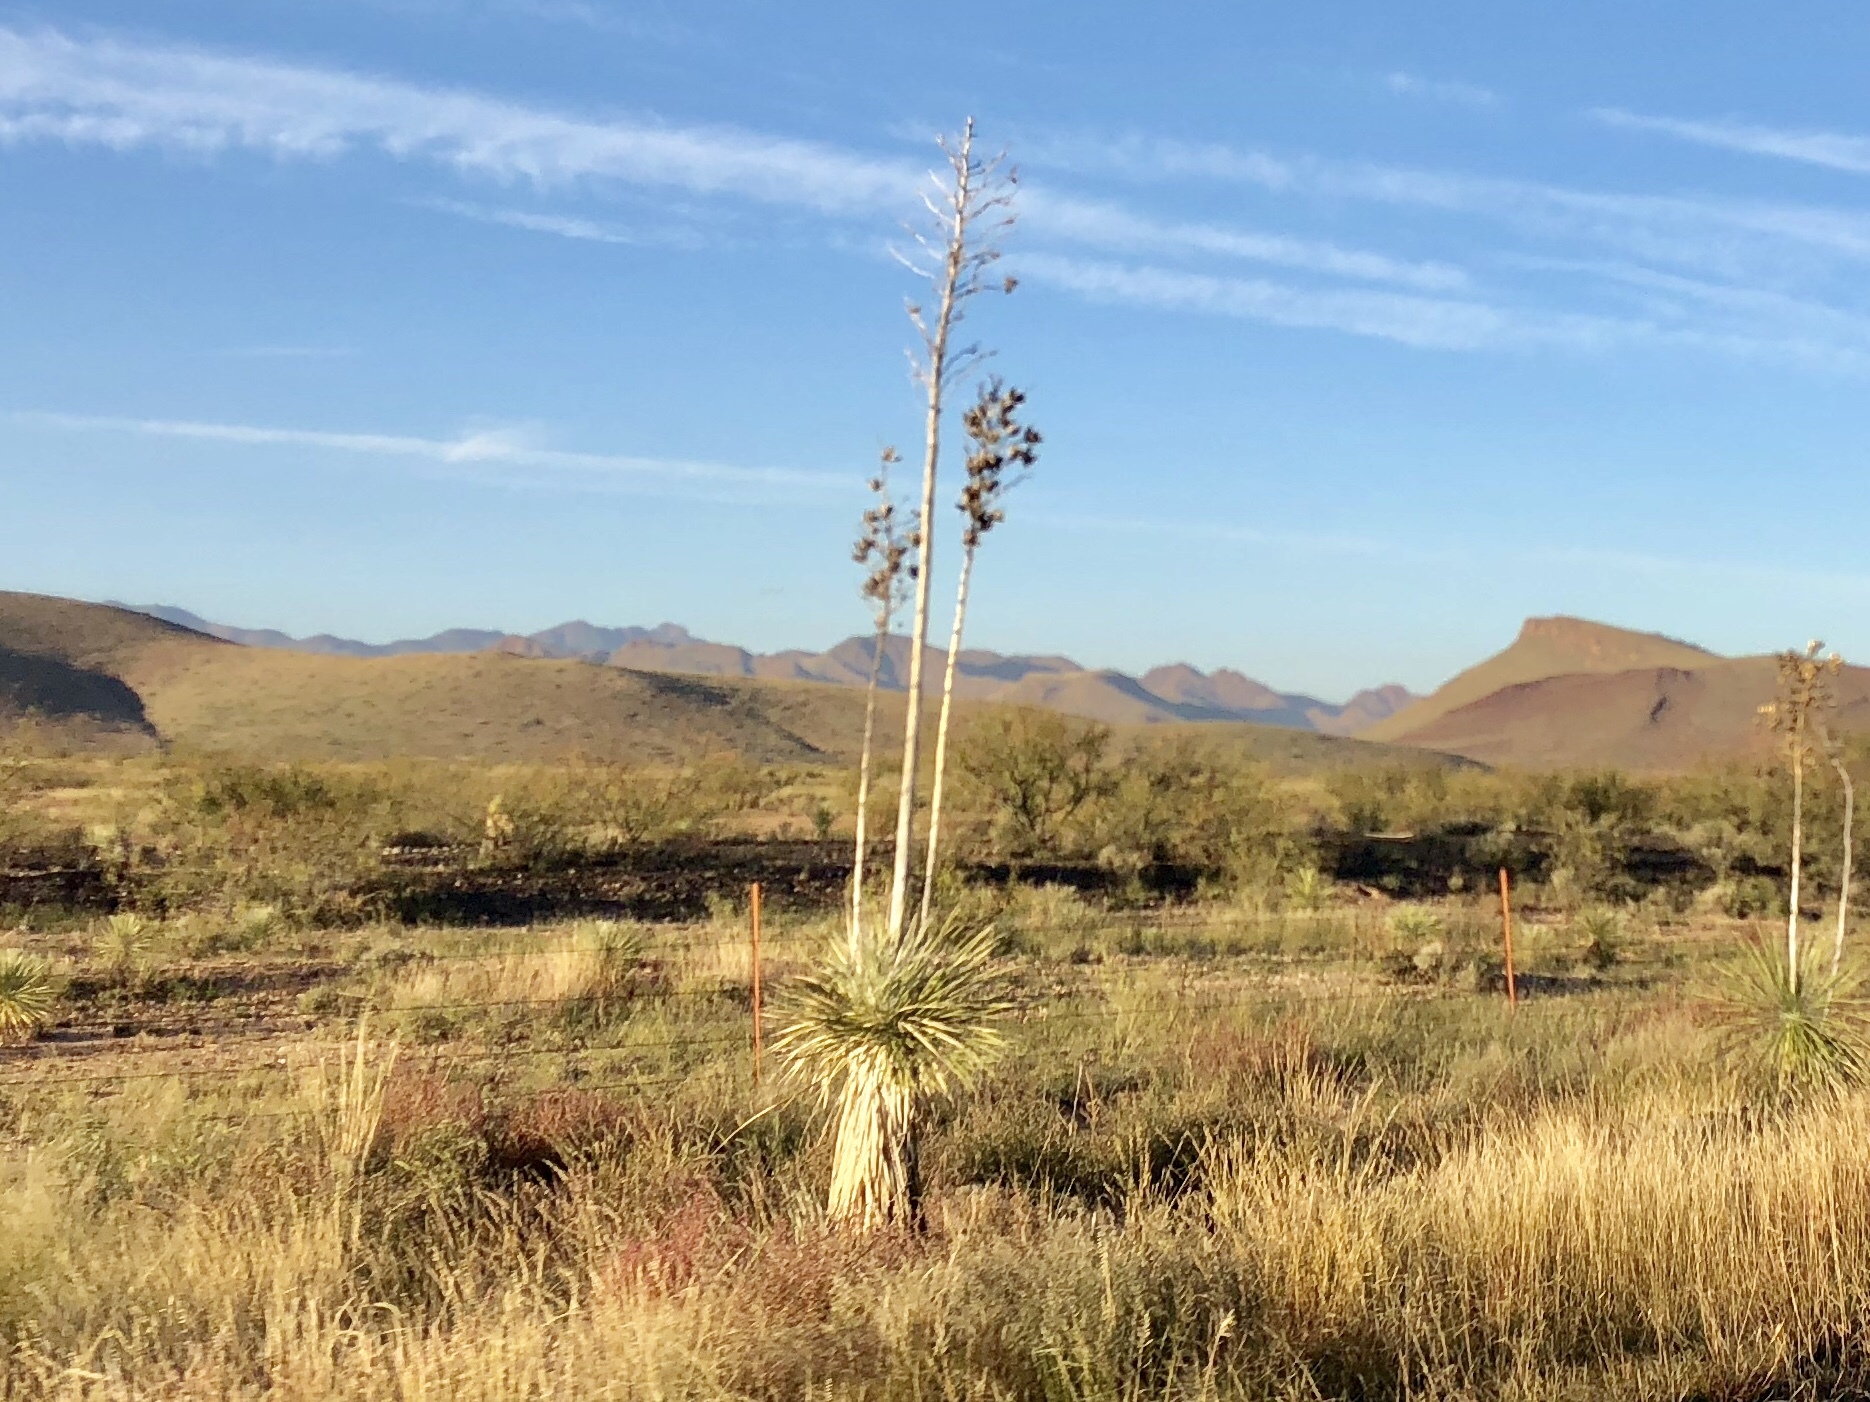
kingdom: Plantae
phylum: Tracheophyta
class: Liliopsida
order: Asparagales
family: Asparagaceae
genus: Yucca
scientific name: Yucca elata
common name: Palmella
